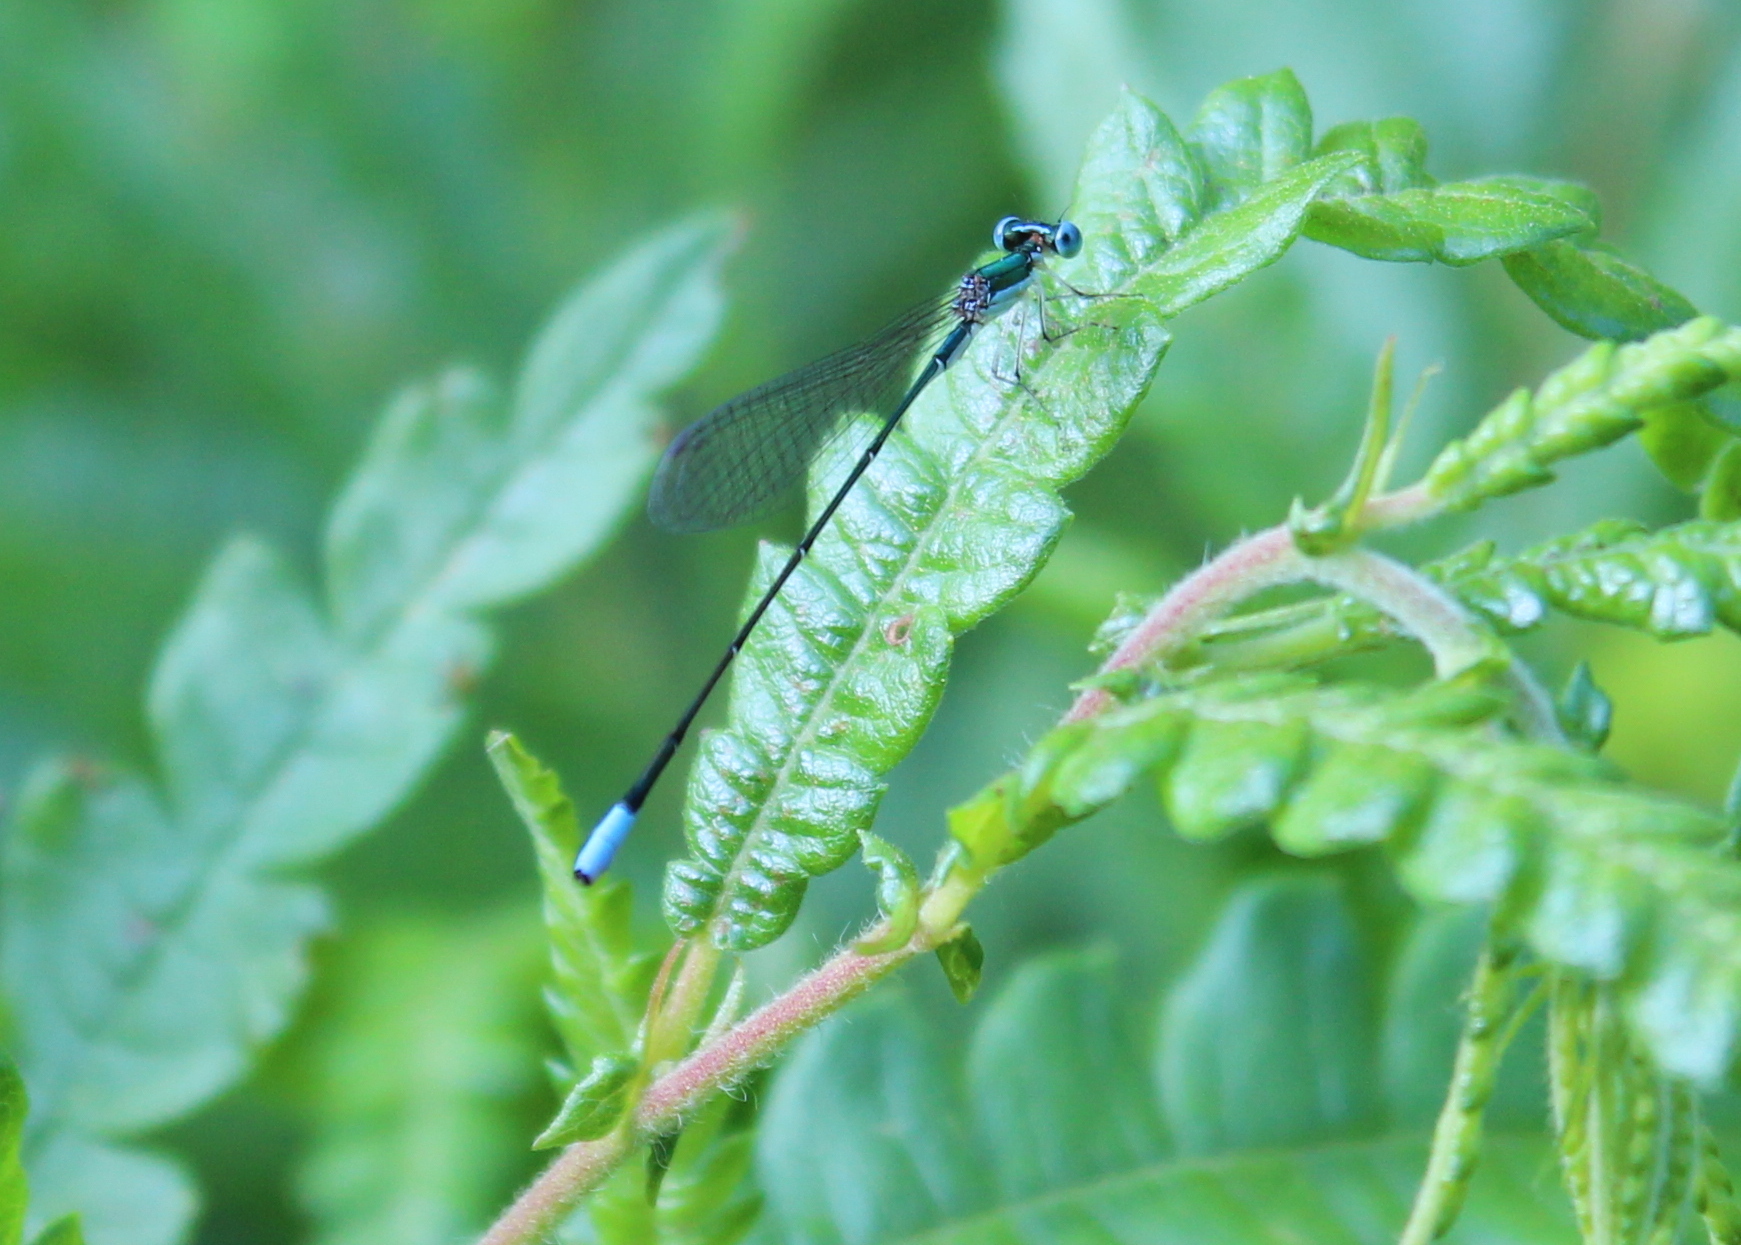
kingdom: Animalia
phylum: Arthropoda
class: Insecta
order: Odonata
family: Coenagrionidae
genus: Nehalennia
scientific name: Nehalennia gracilis
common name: Sphagnum sprite
